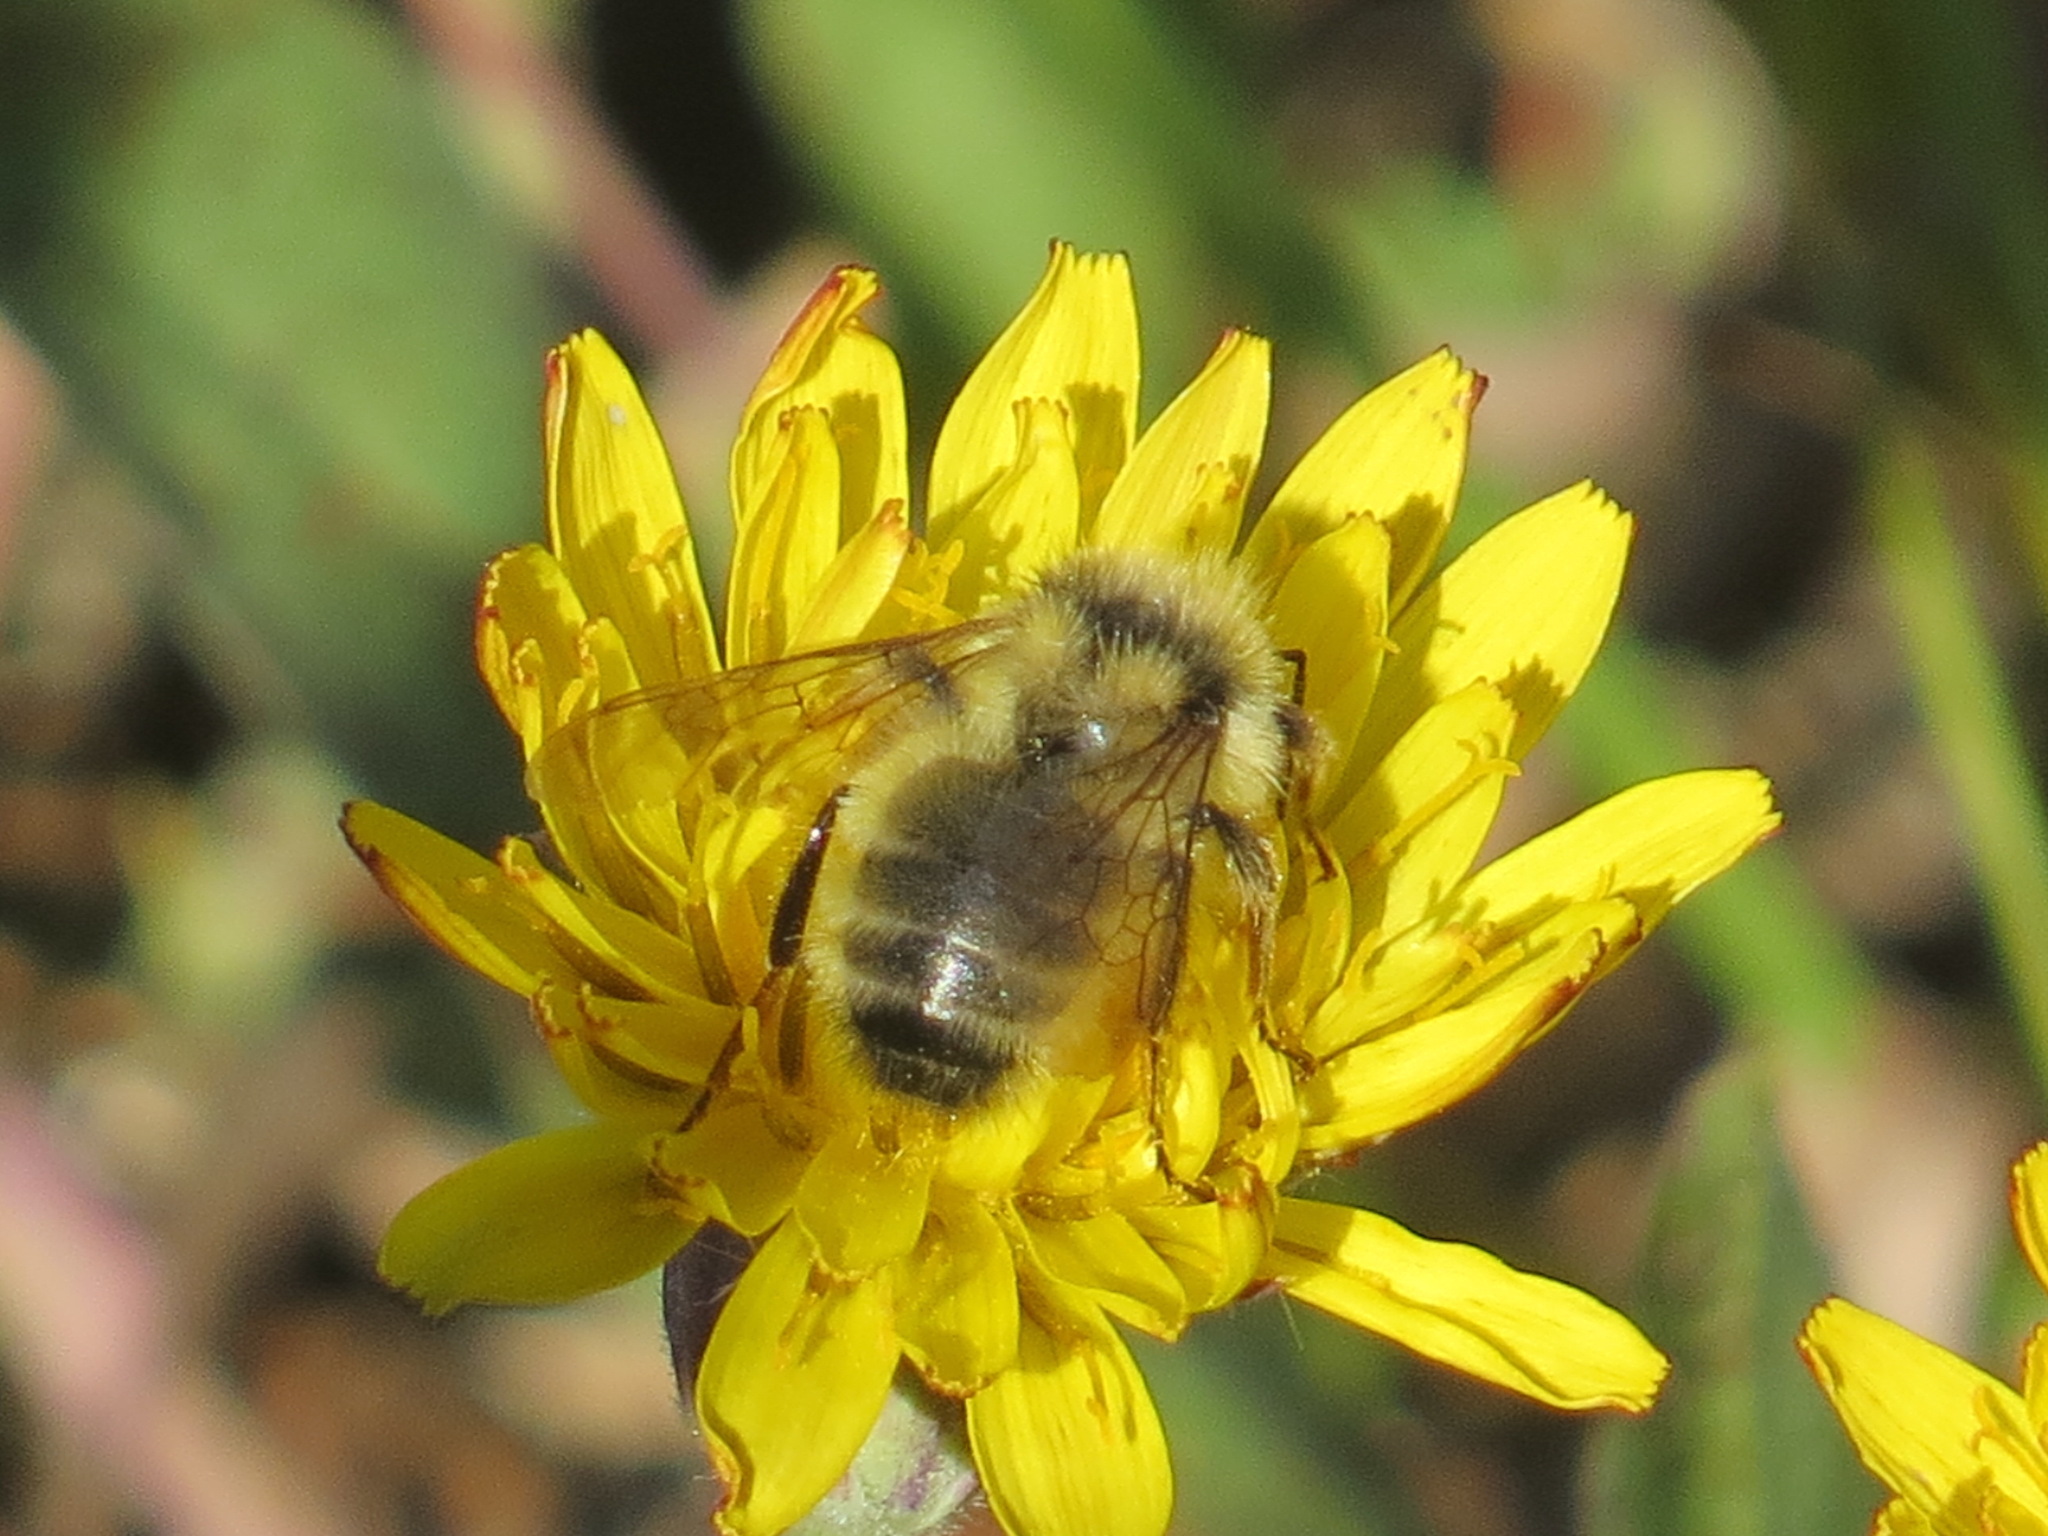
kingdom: Animalia
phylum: Arthropoda
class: Insecta
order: Hymenoptera
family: Apidae
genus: Bombus
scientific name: Bombus vandykei
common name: Van dyke bumble bee
